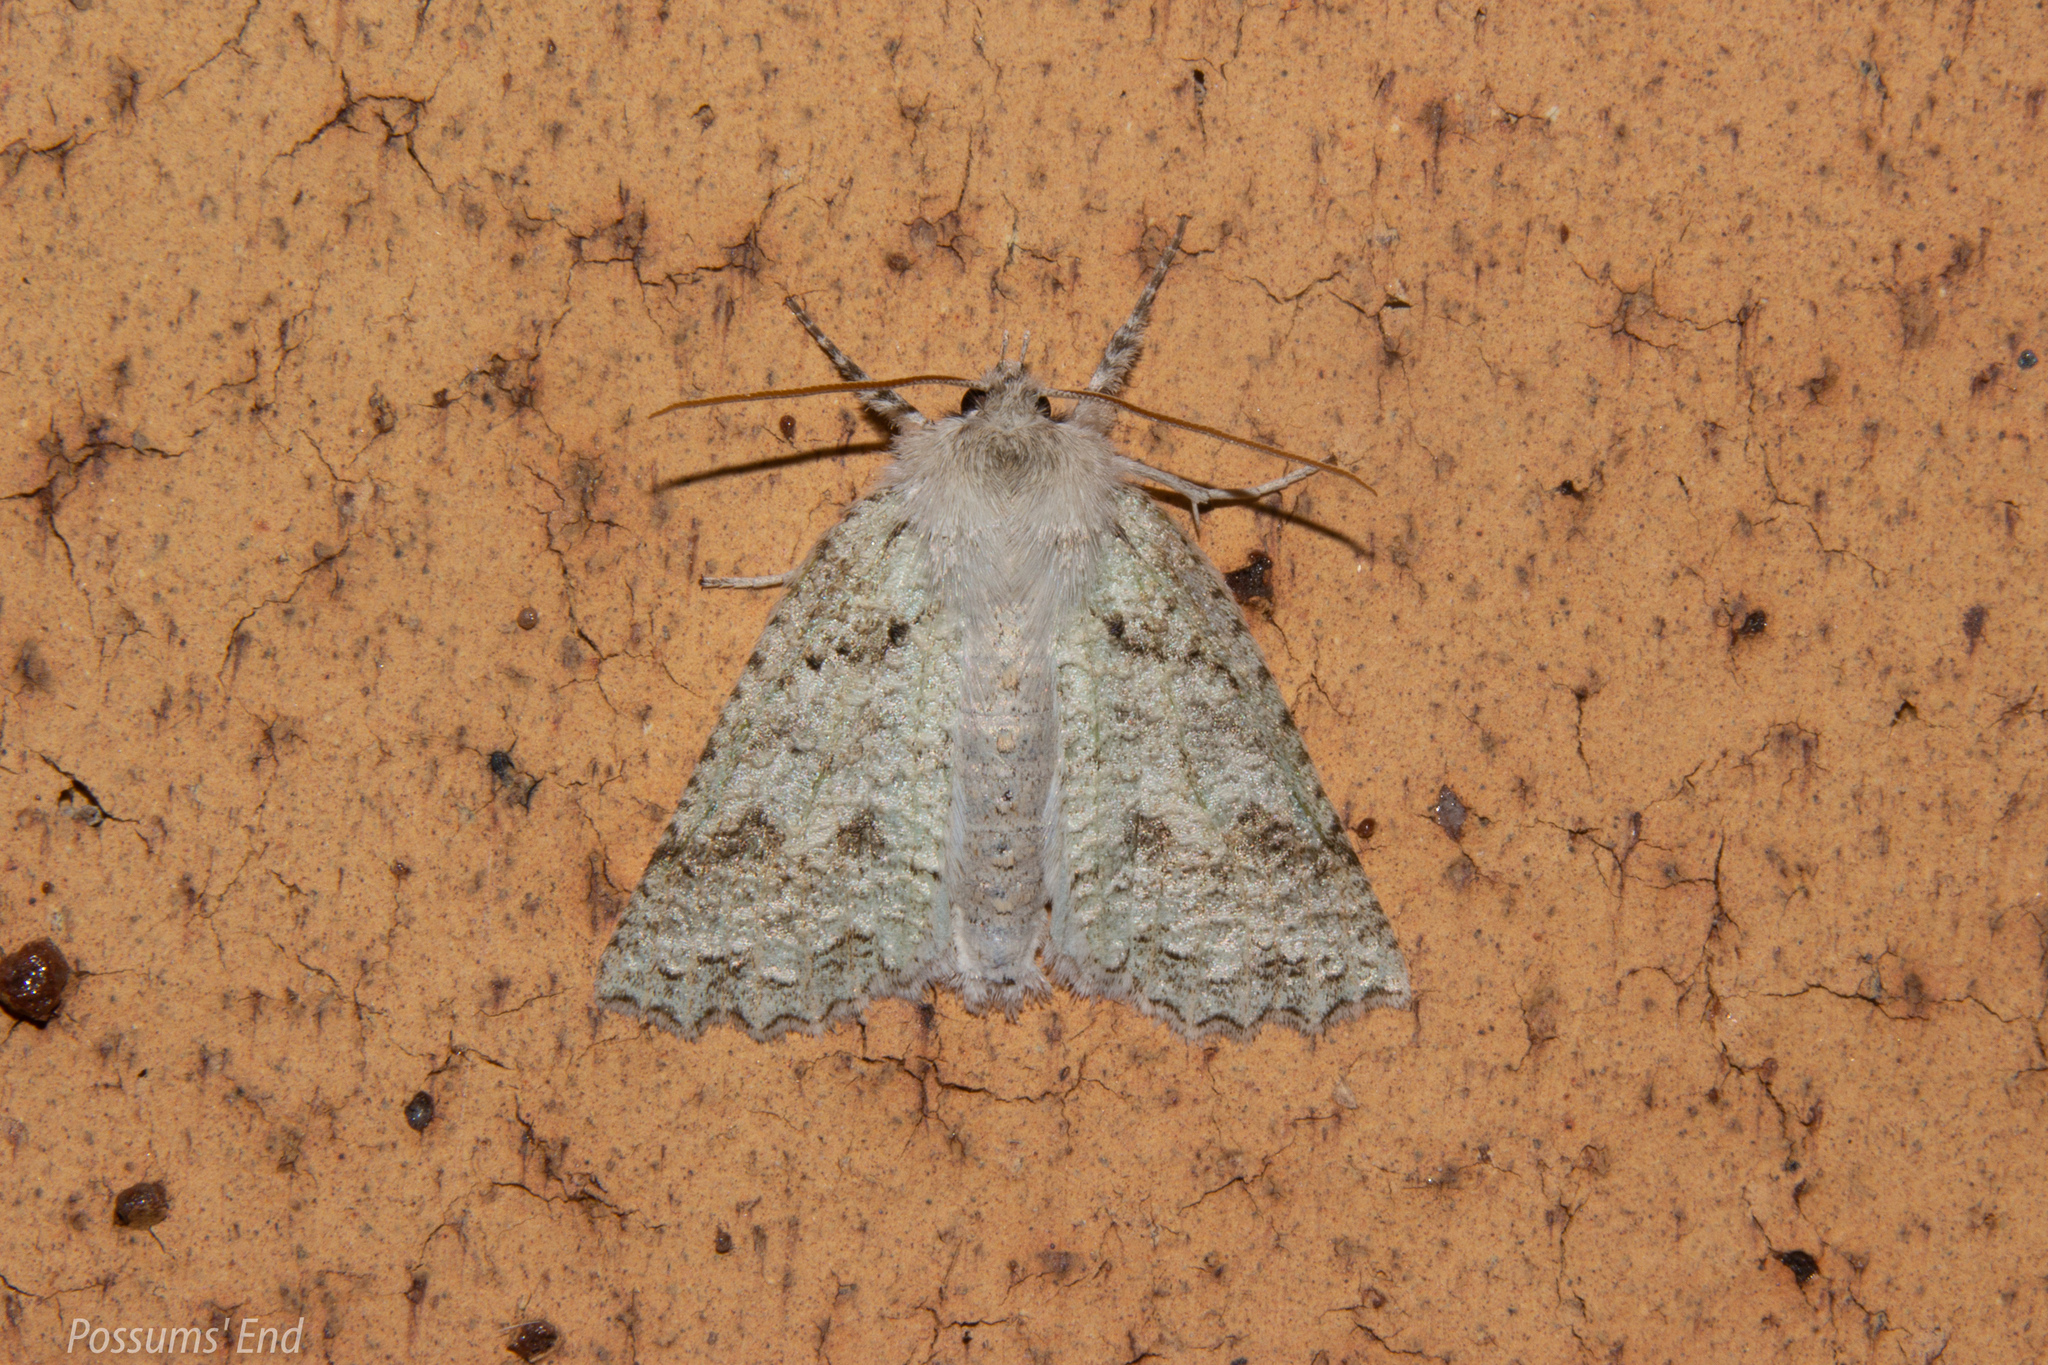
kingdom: Animalia
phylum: Arthropoda
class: Insecta
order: Lepidoptera
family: Geometridae
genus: Declana
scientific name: Declana niveata
